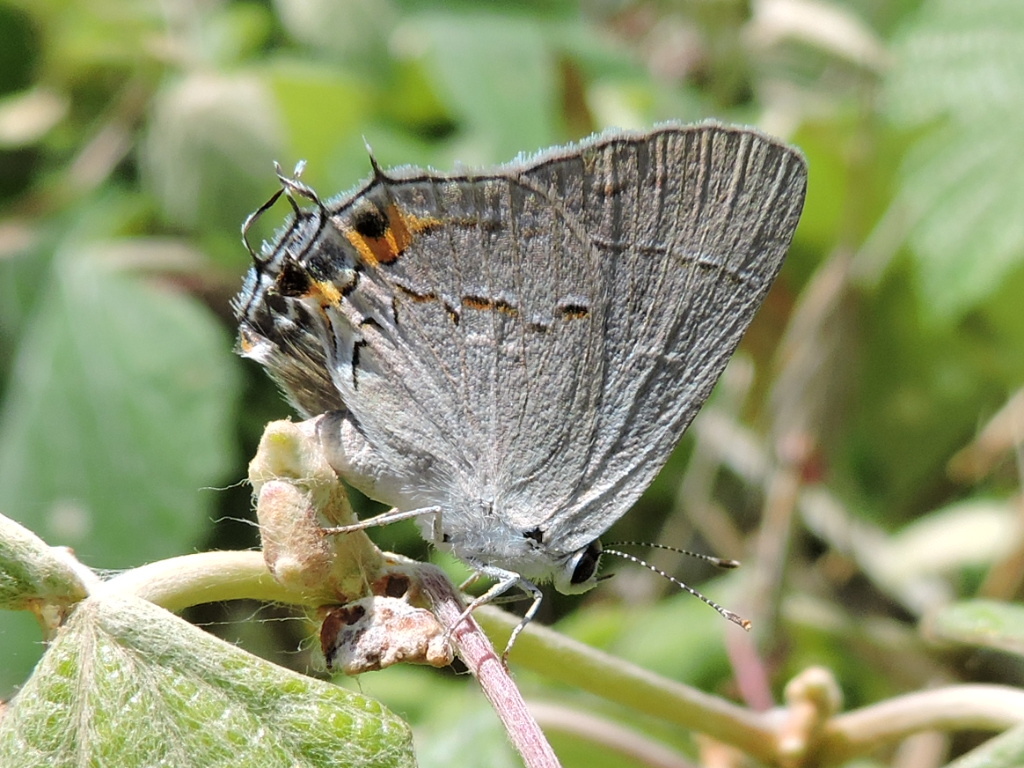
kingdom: Animalia
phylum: Arthropoda
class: Insecta
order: Lepidoptera
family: Lycaenidae
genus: Strymon
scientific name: Strymon melinus
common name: Gray hairstreak
